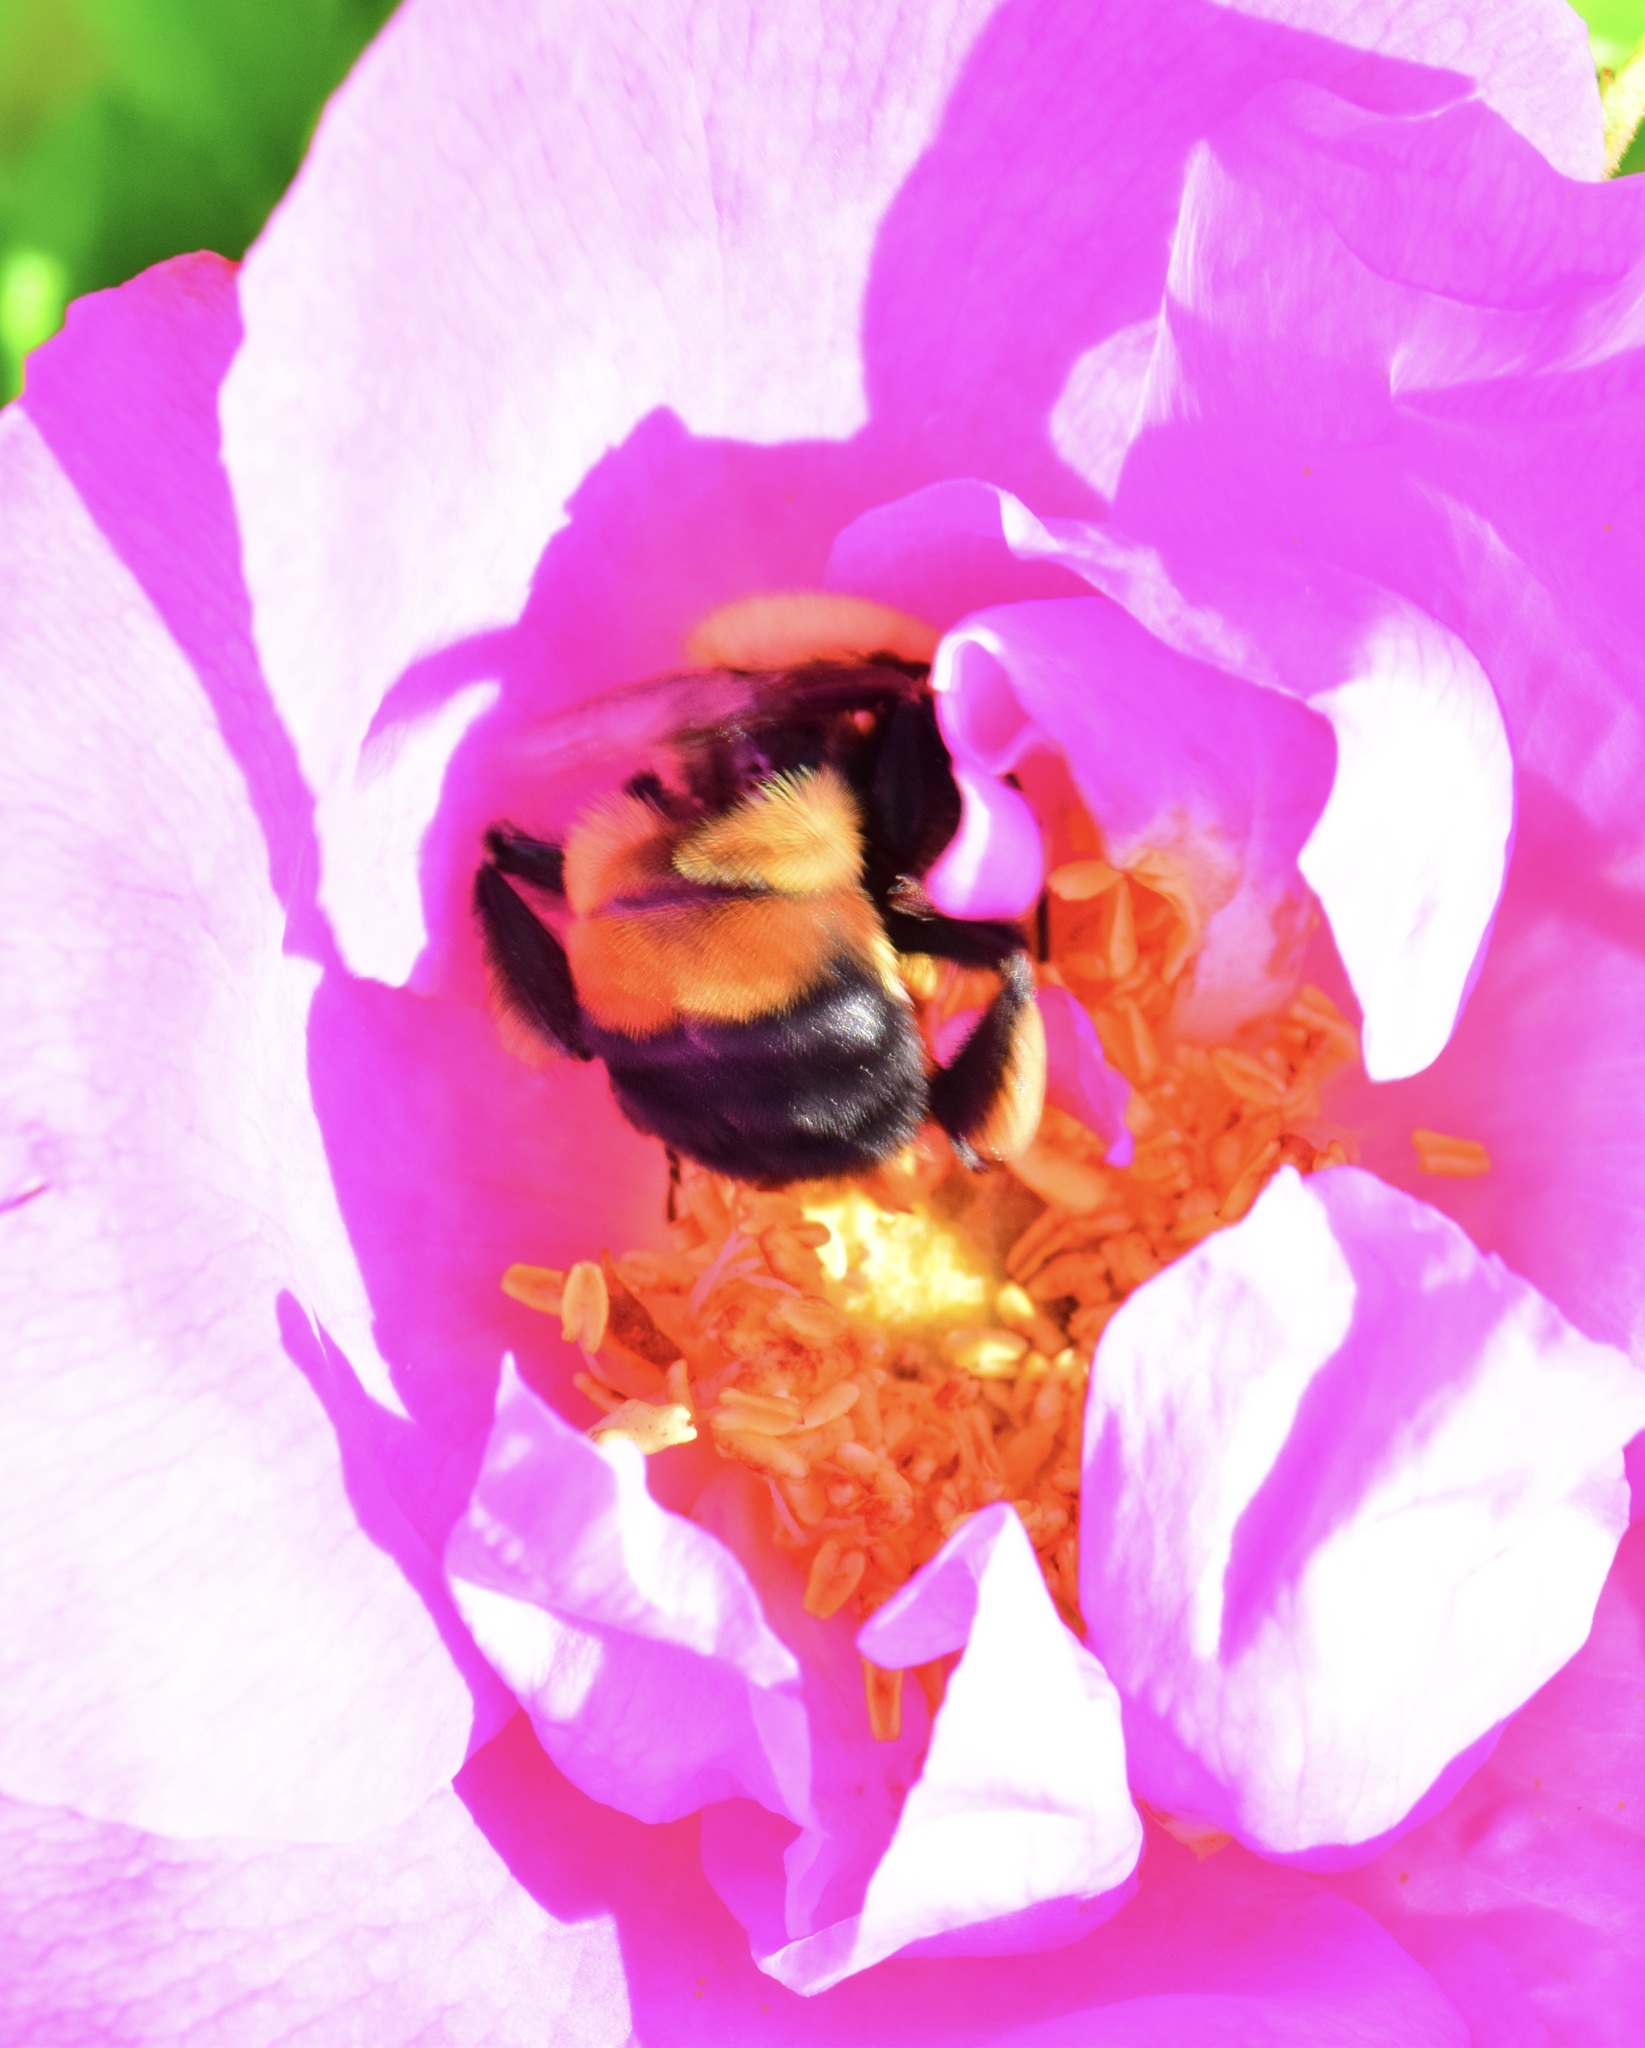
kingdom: Animalia
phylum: Arthropoda
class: Insecta
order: Hymenoptera
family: Apidae
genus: Bombus
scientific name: Bombus griseocollis
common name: Brown-belted bumble bee
